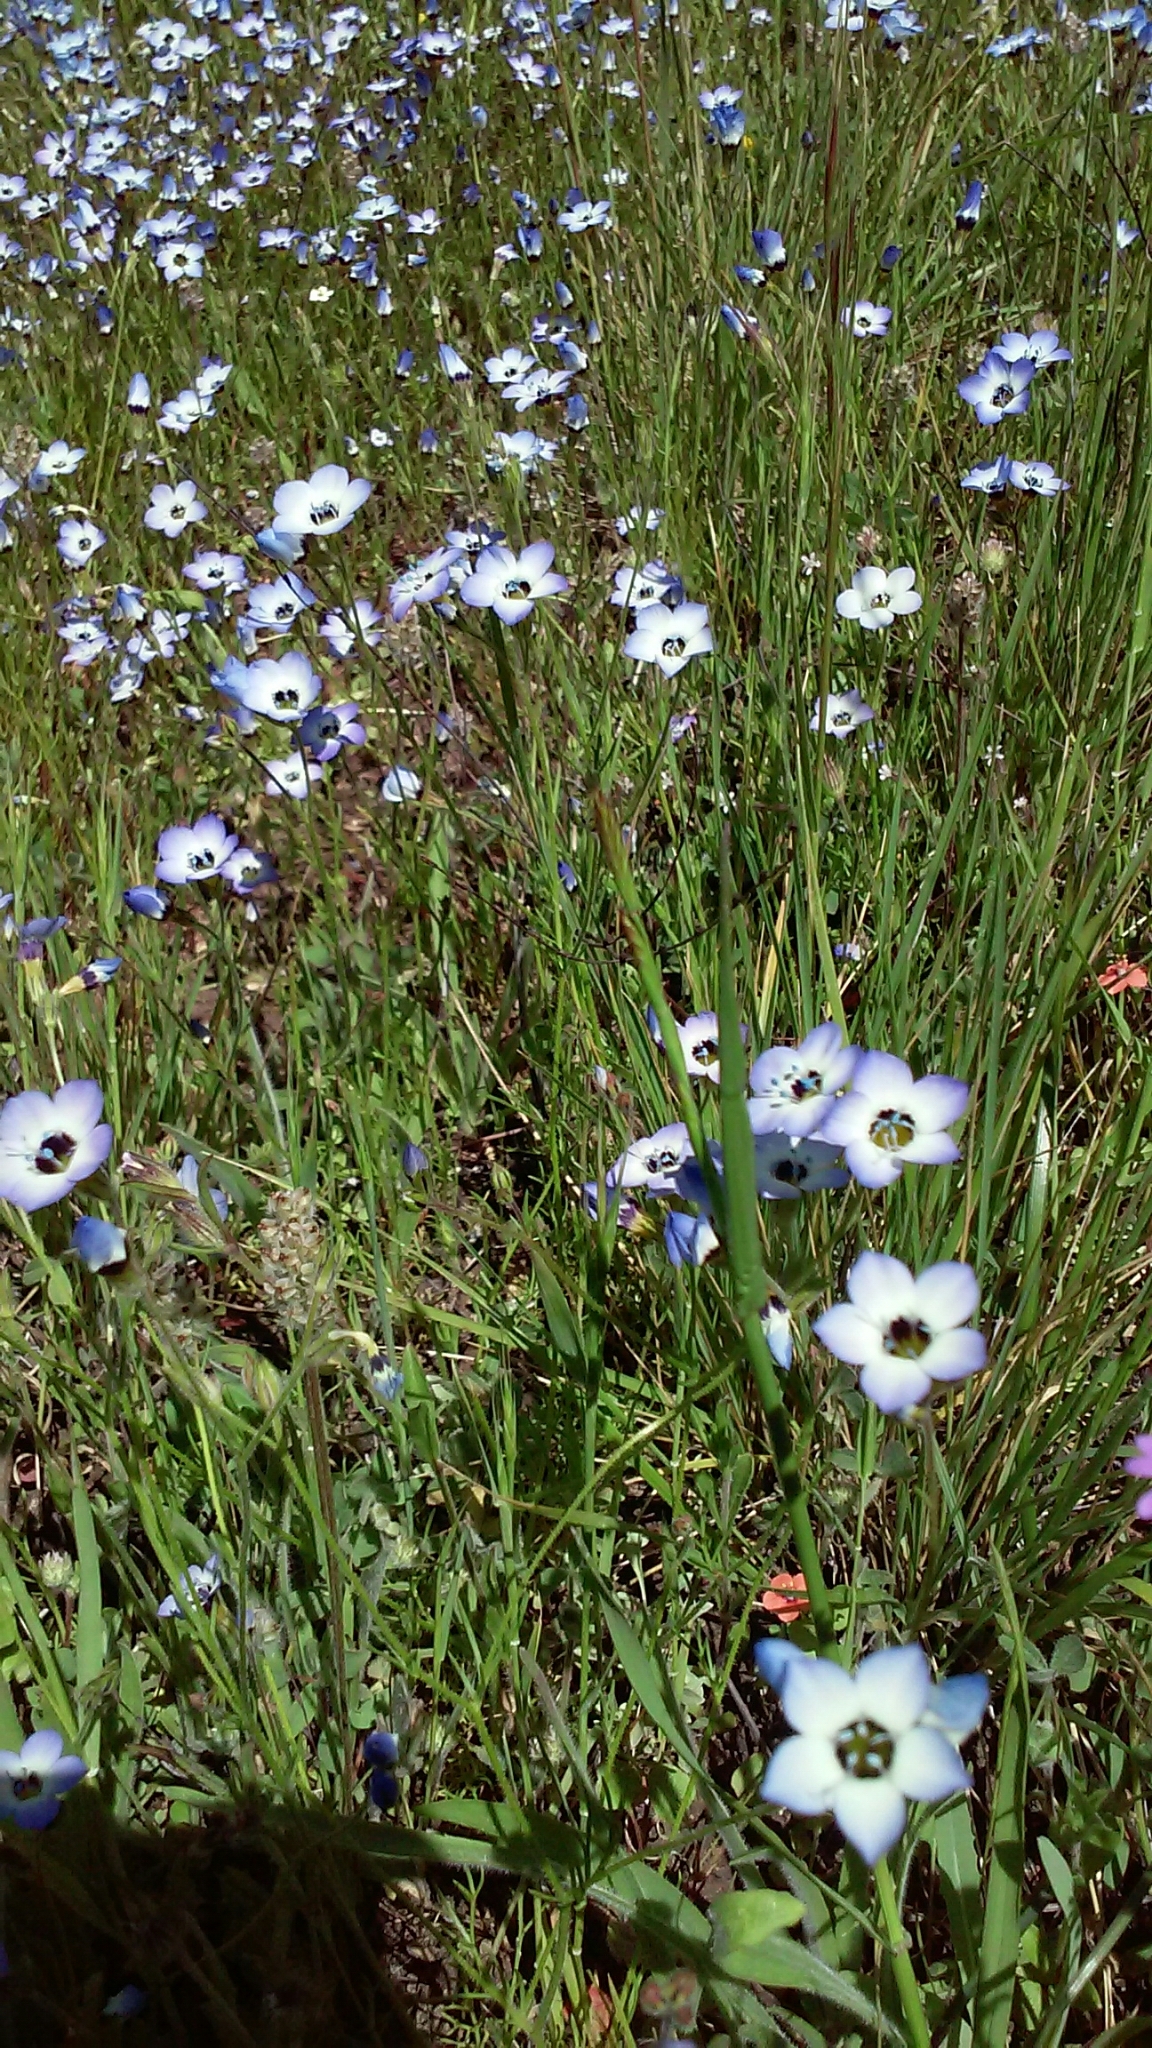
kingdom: Plantae
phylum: Tracheophyta
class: Magnoliopsida
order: Ericales
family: Polemoniaceae
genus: Gilia
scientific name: Gilia tricolor
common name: Bird's-eyes
